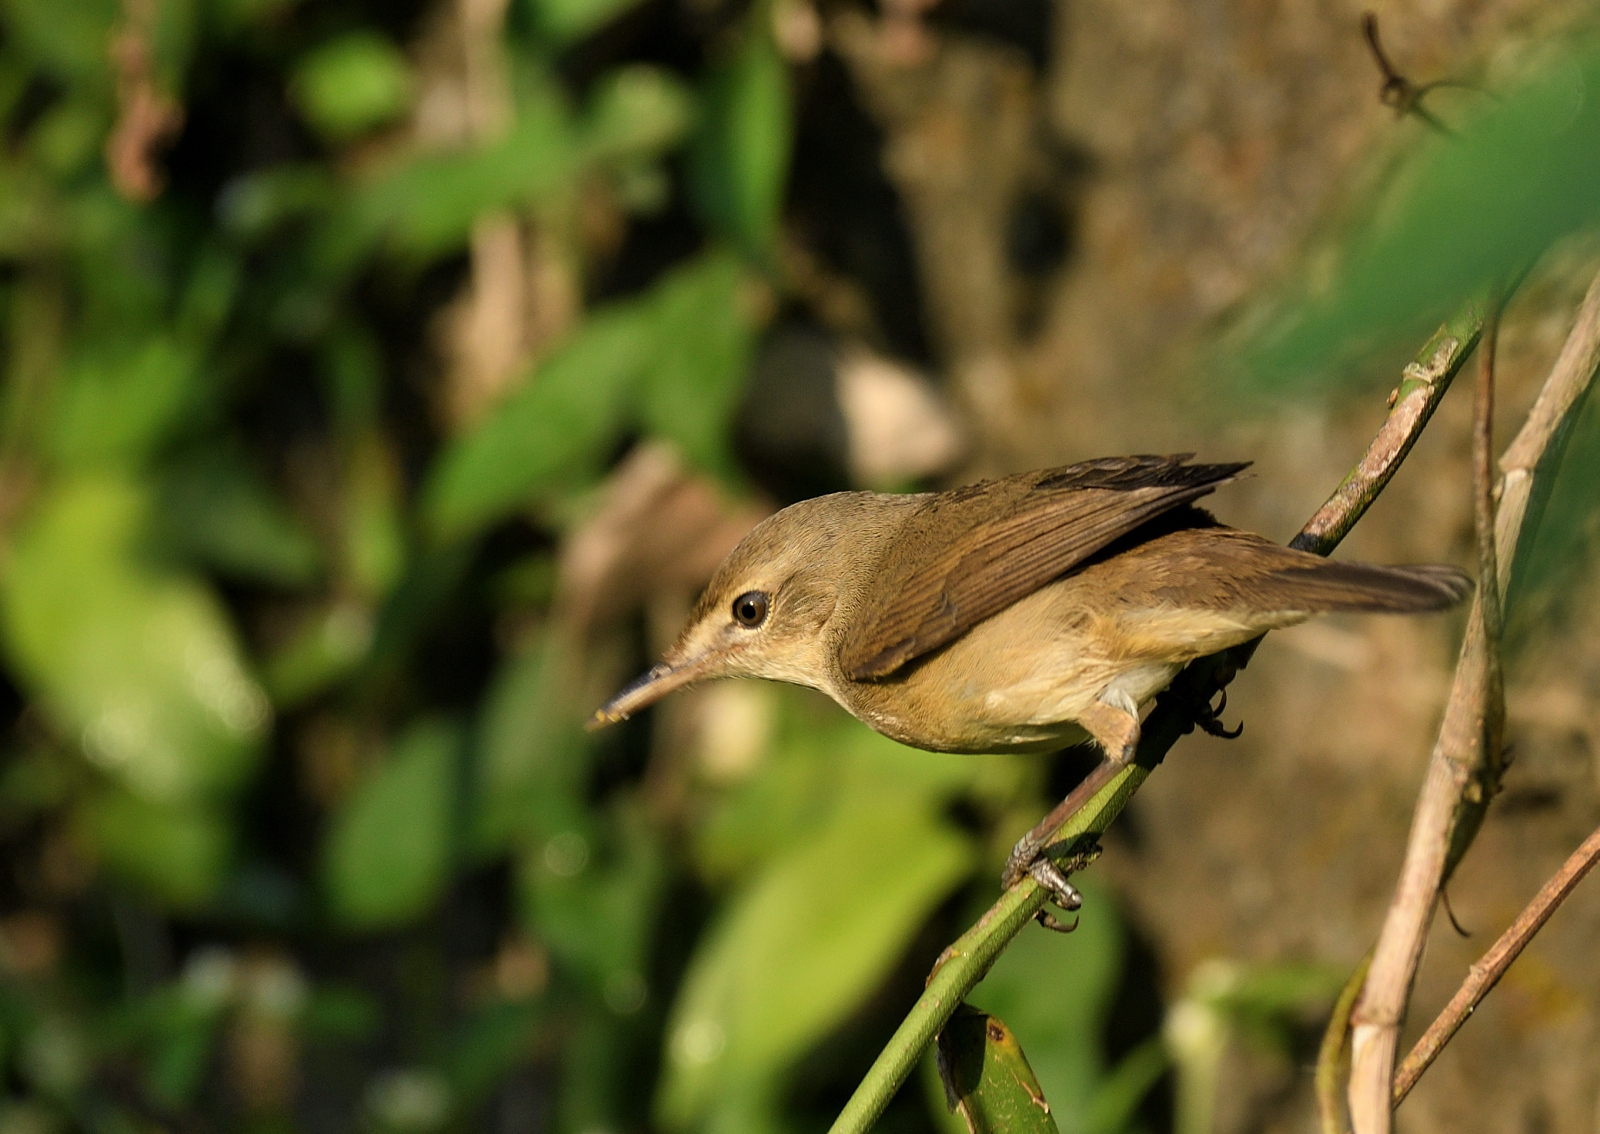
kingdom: Animalia
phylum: Chordata
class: Aves
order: Passeriformes
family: Acrocephalidae
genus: Acrocephalus
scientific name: Acrocephalus stentoreus
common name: Clamorous reed warbler
